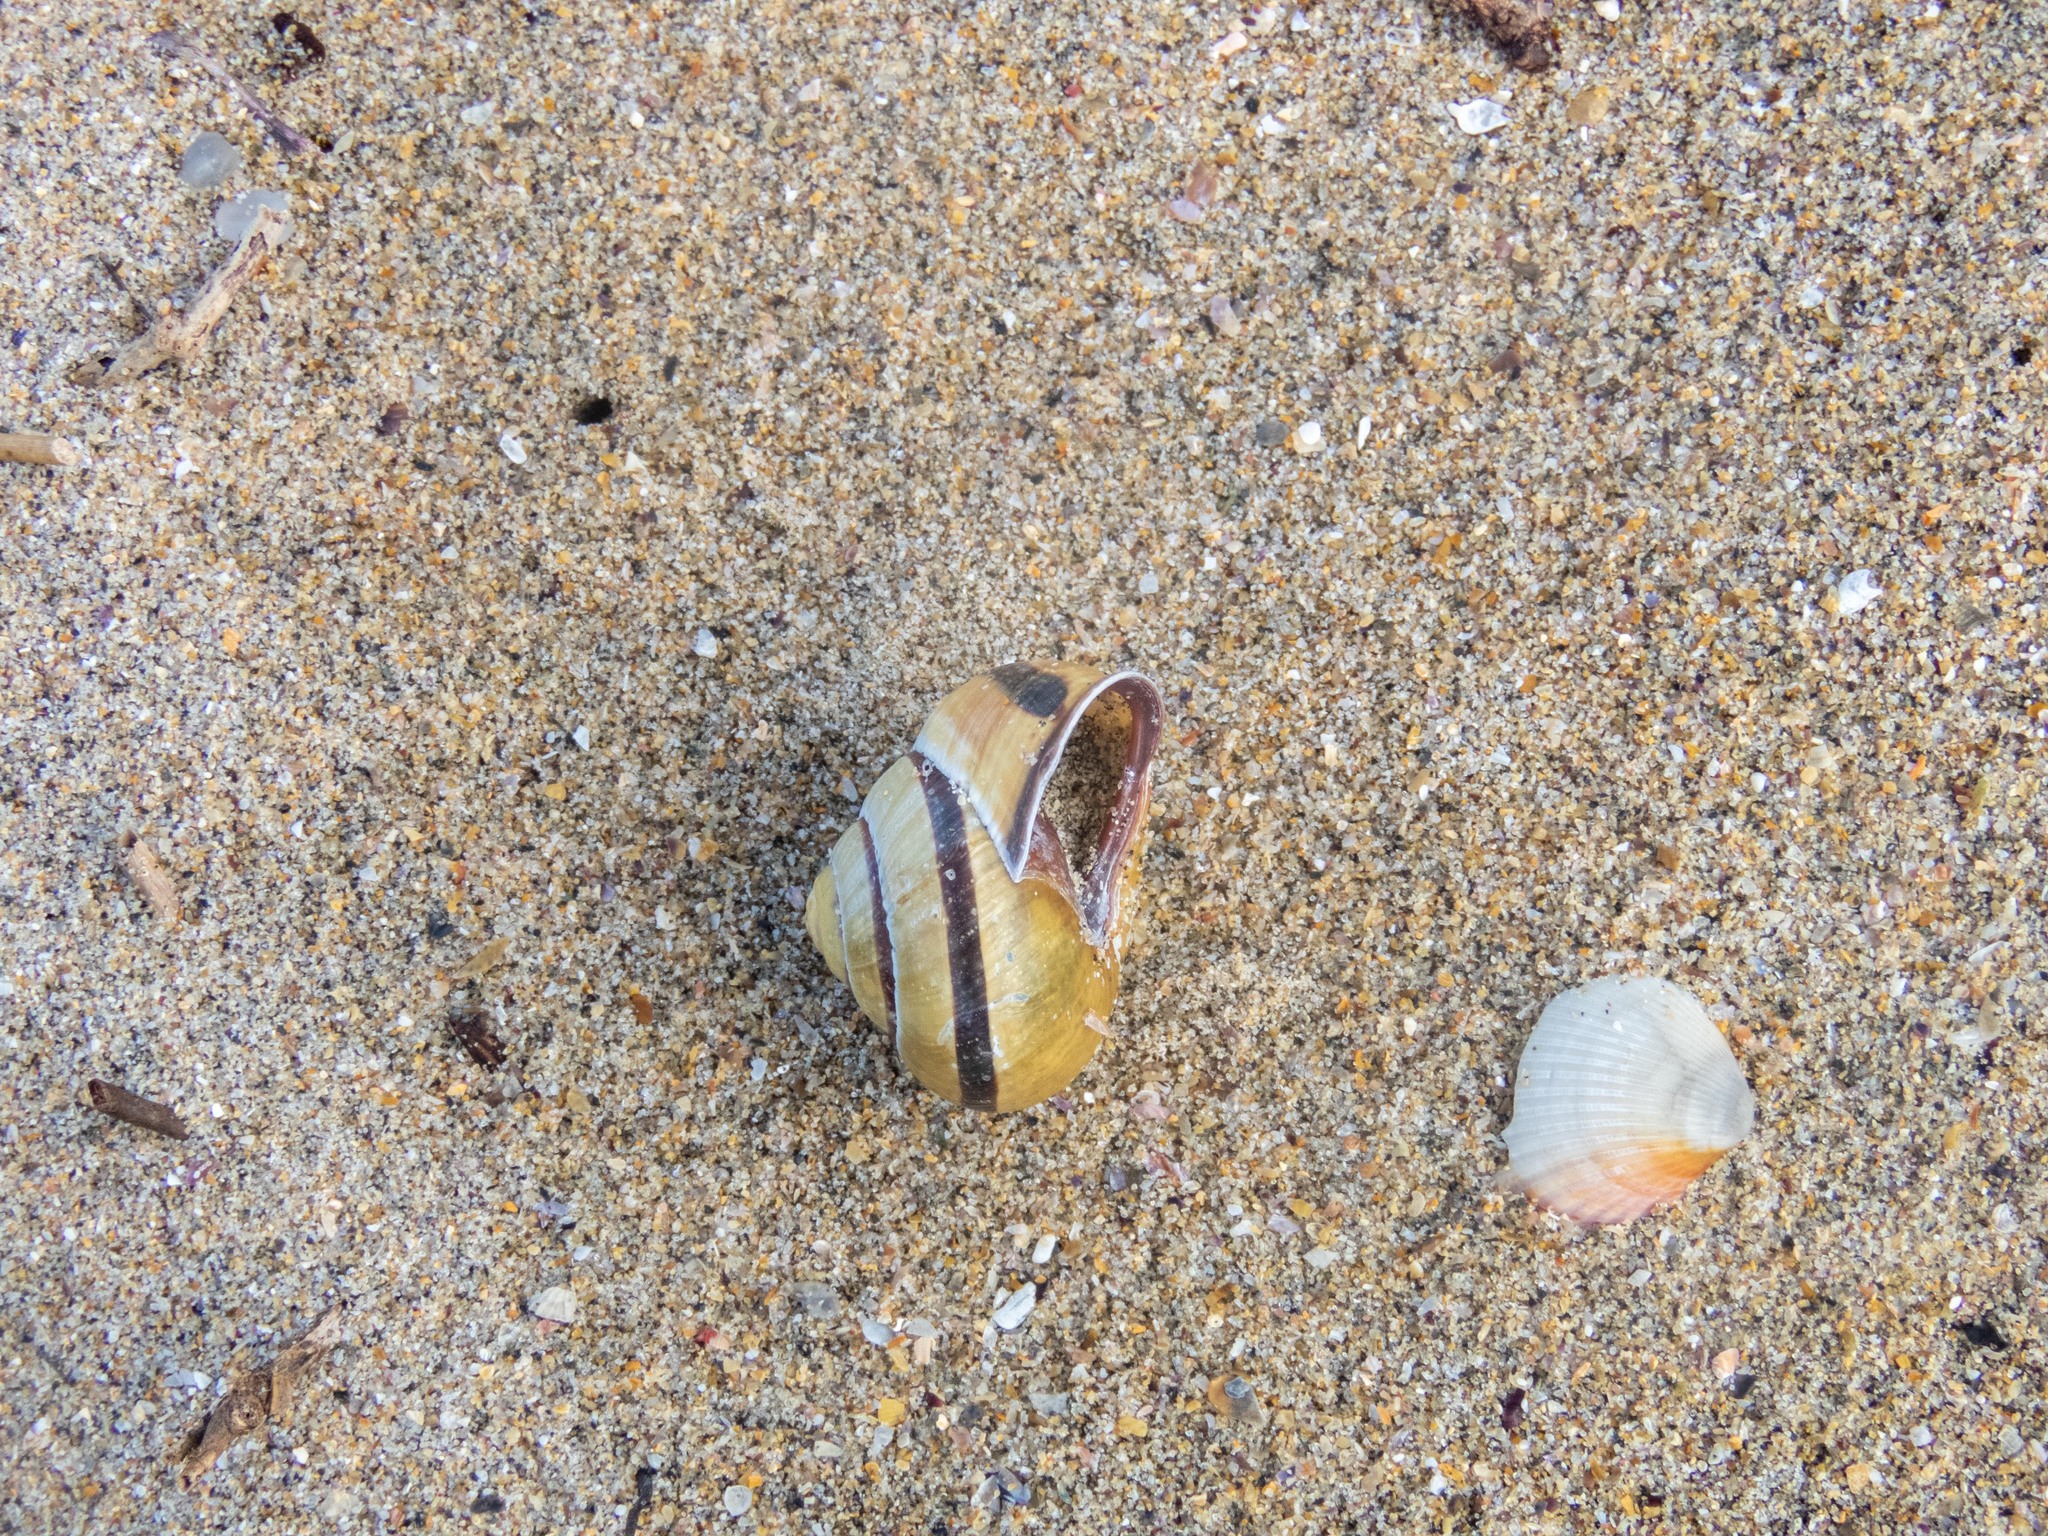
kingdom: Animalia
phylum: Mollusca
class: Gastropoda
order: Stylommatophora
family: Helicidae
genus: Cepaea
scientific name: Cepaea nemoralis
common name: Grovesnail
